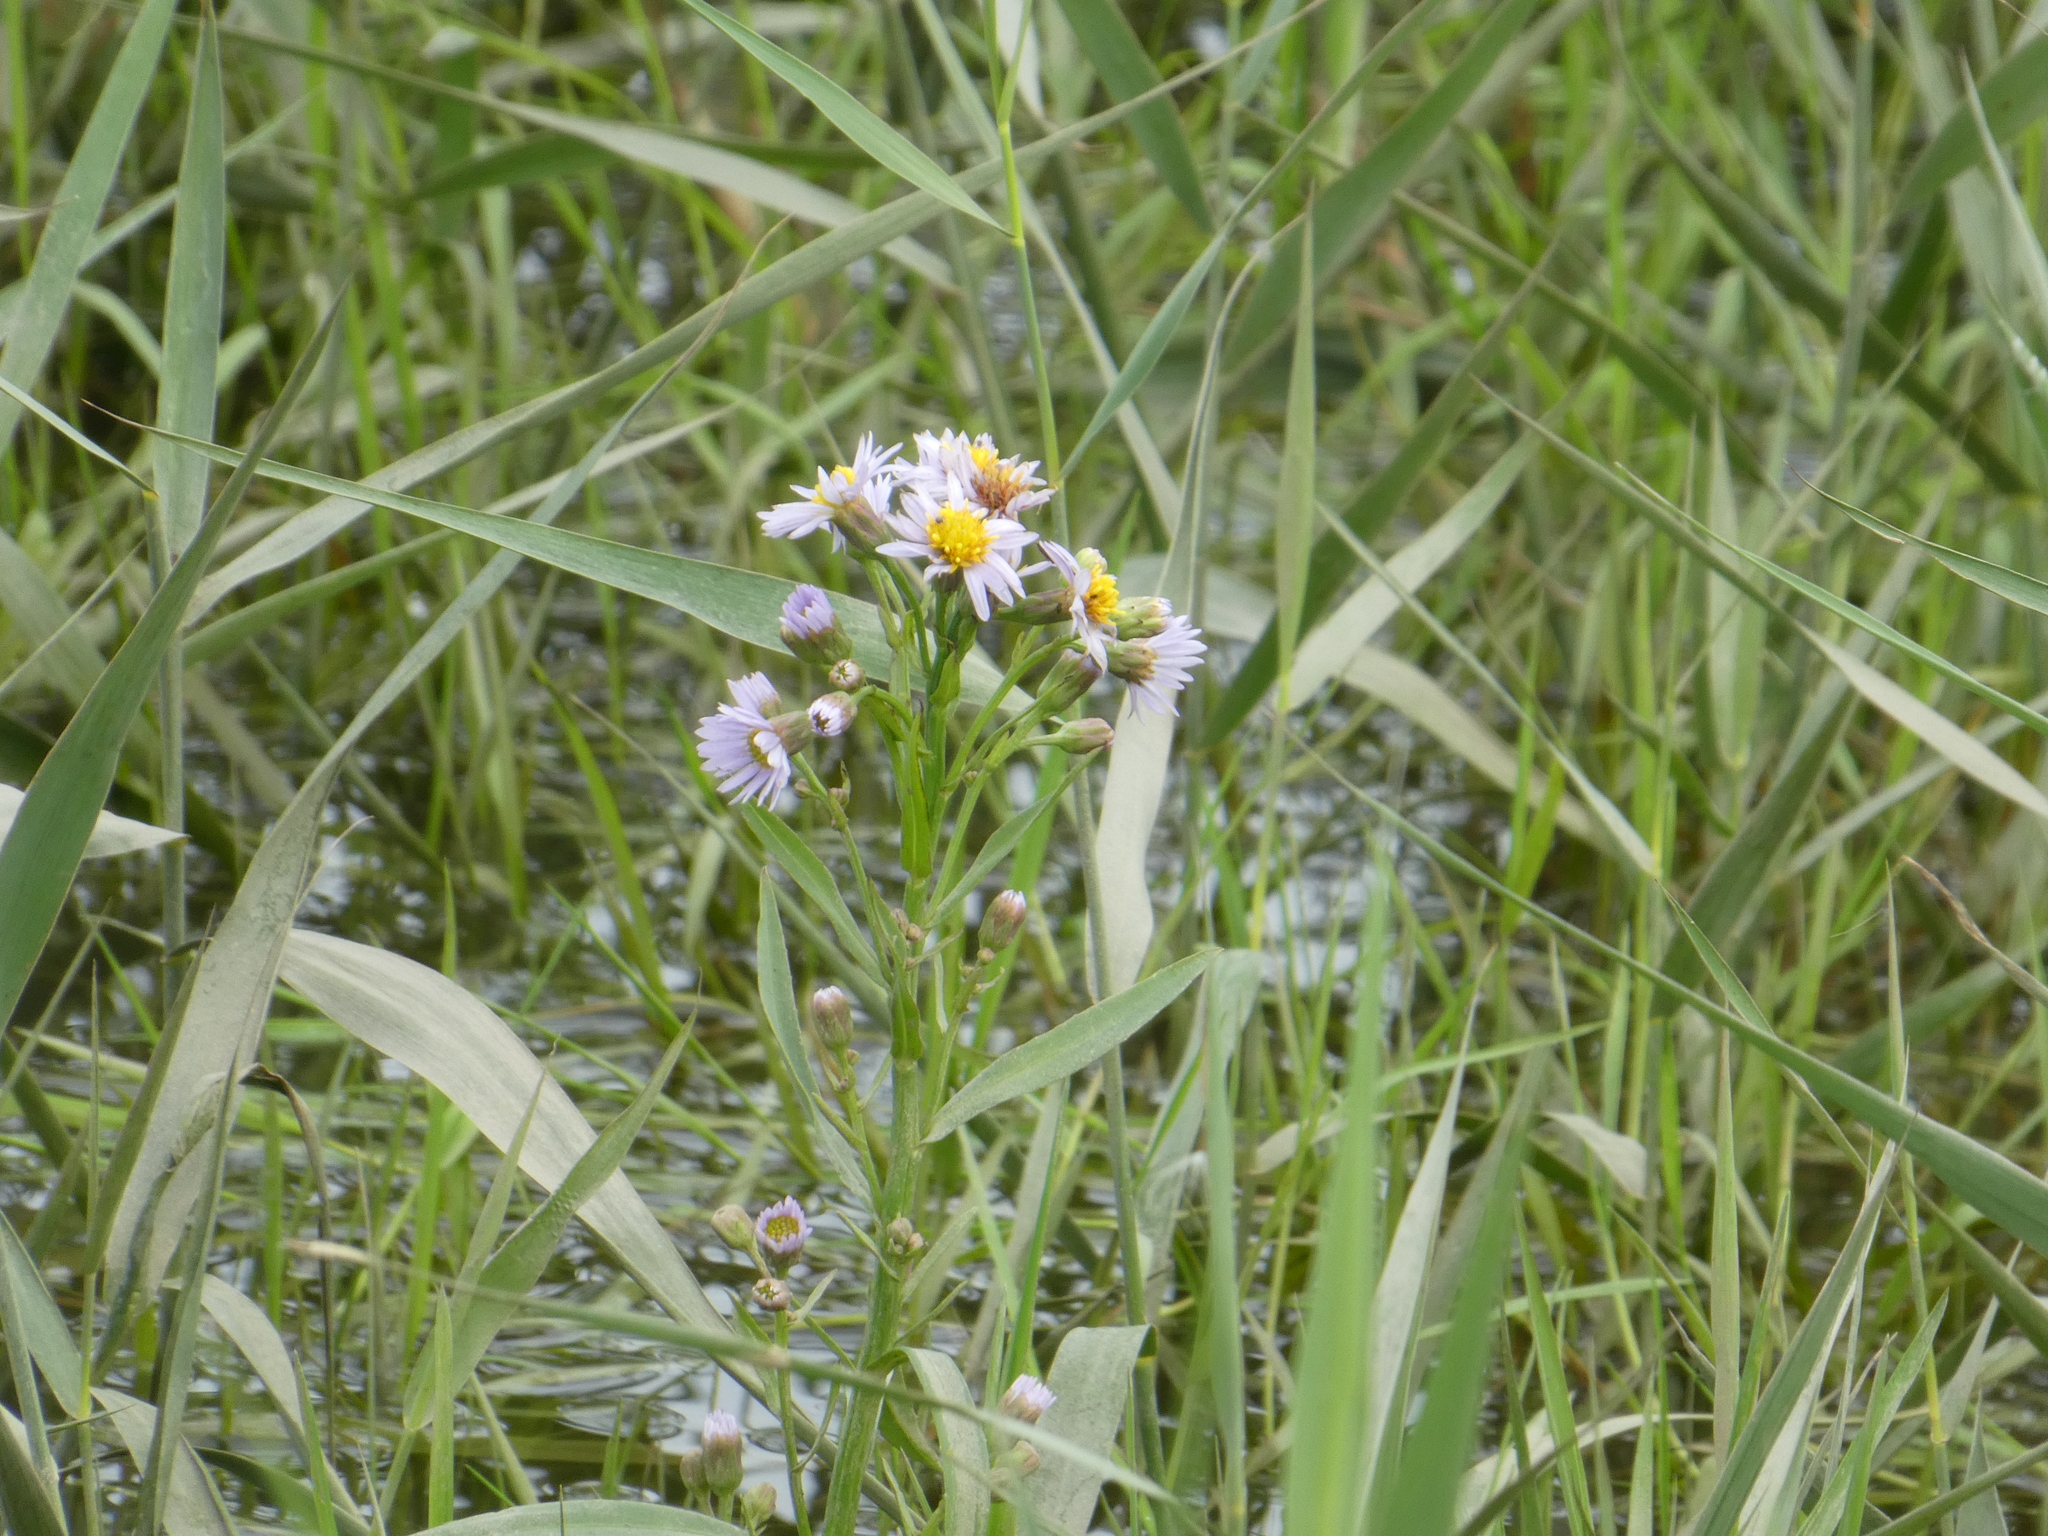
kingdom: Plantae
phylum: Tracheophyta
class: Magnoliopsida
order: Asterales
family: Asteraceae
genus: Tripolium
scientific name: Tripolium pannonicum
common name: Sea aster
